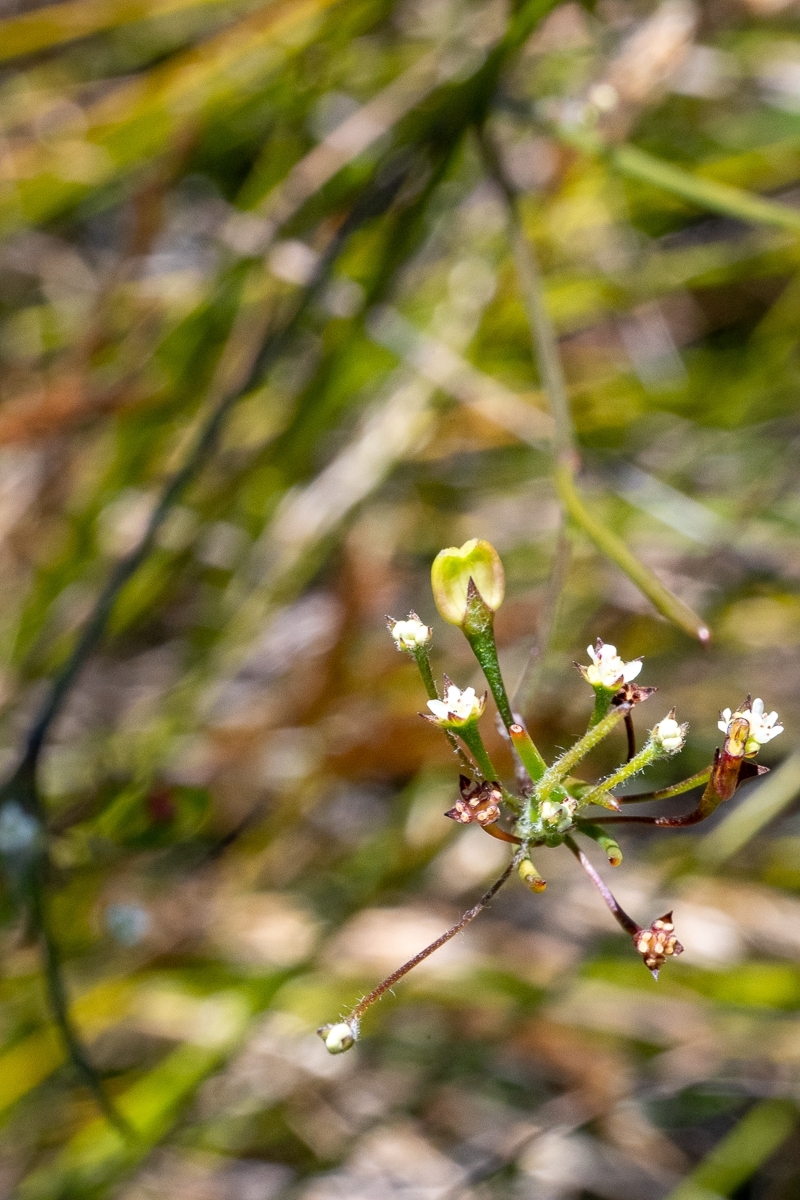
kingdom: Plantae
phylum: Tracheophyta
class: Magnoliopsida
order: Apiales
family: Apiaceae
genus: Centella
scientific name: Centella macrocarpa
